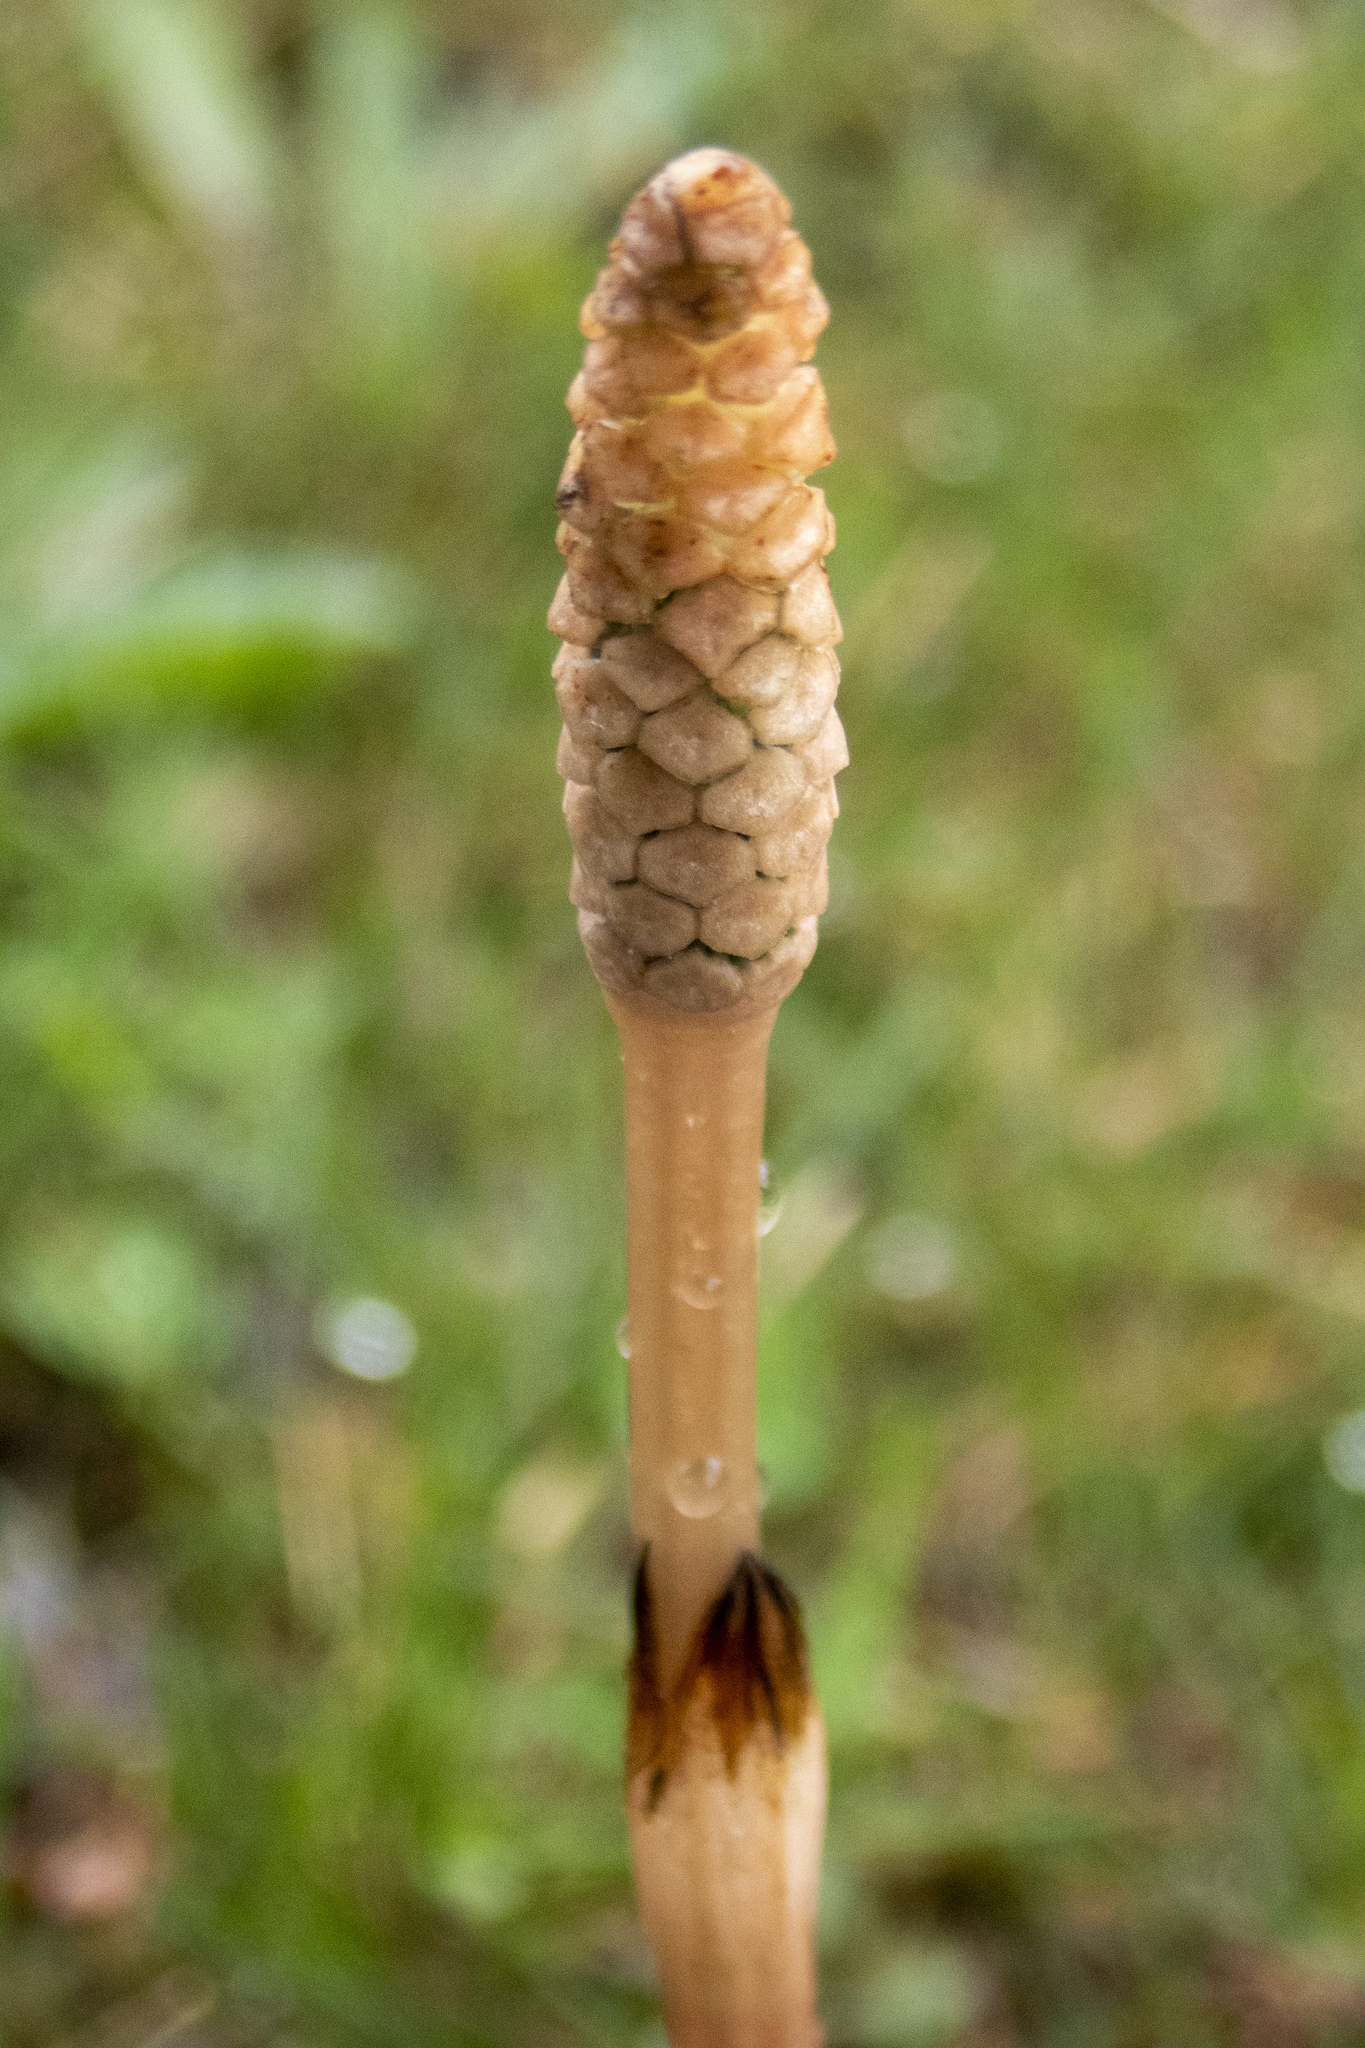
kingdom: Plantae
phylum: Tracheophyta
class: Polypodiopsida
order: Equisetales
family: Equisetaceae
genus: Equisetum
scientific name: Equisetum arvense
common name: Field horsetail
